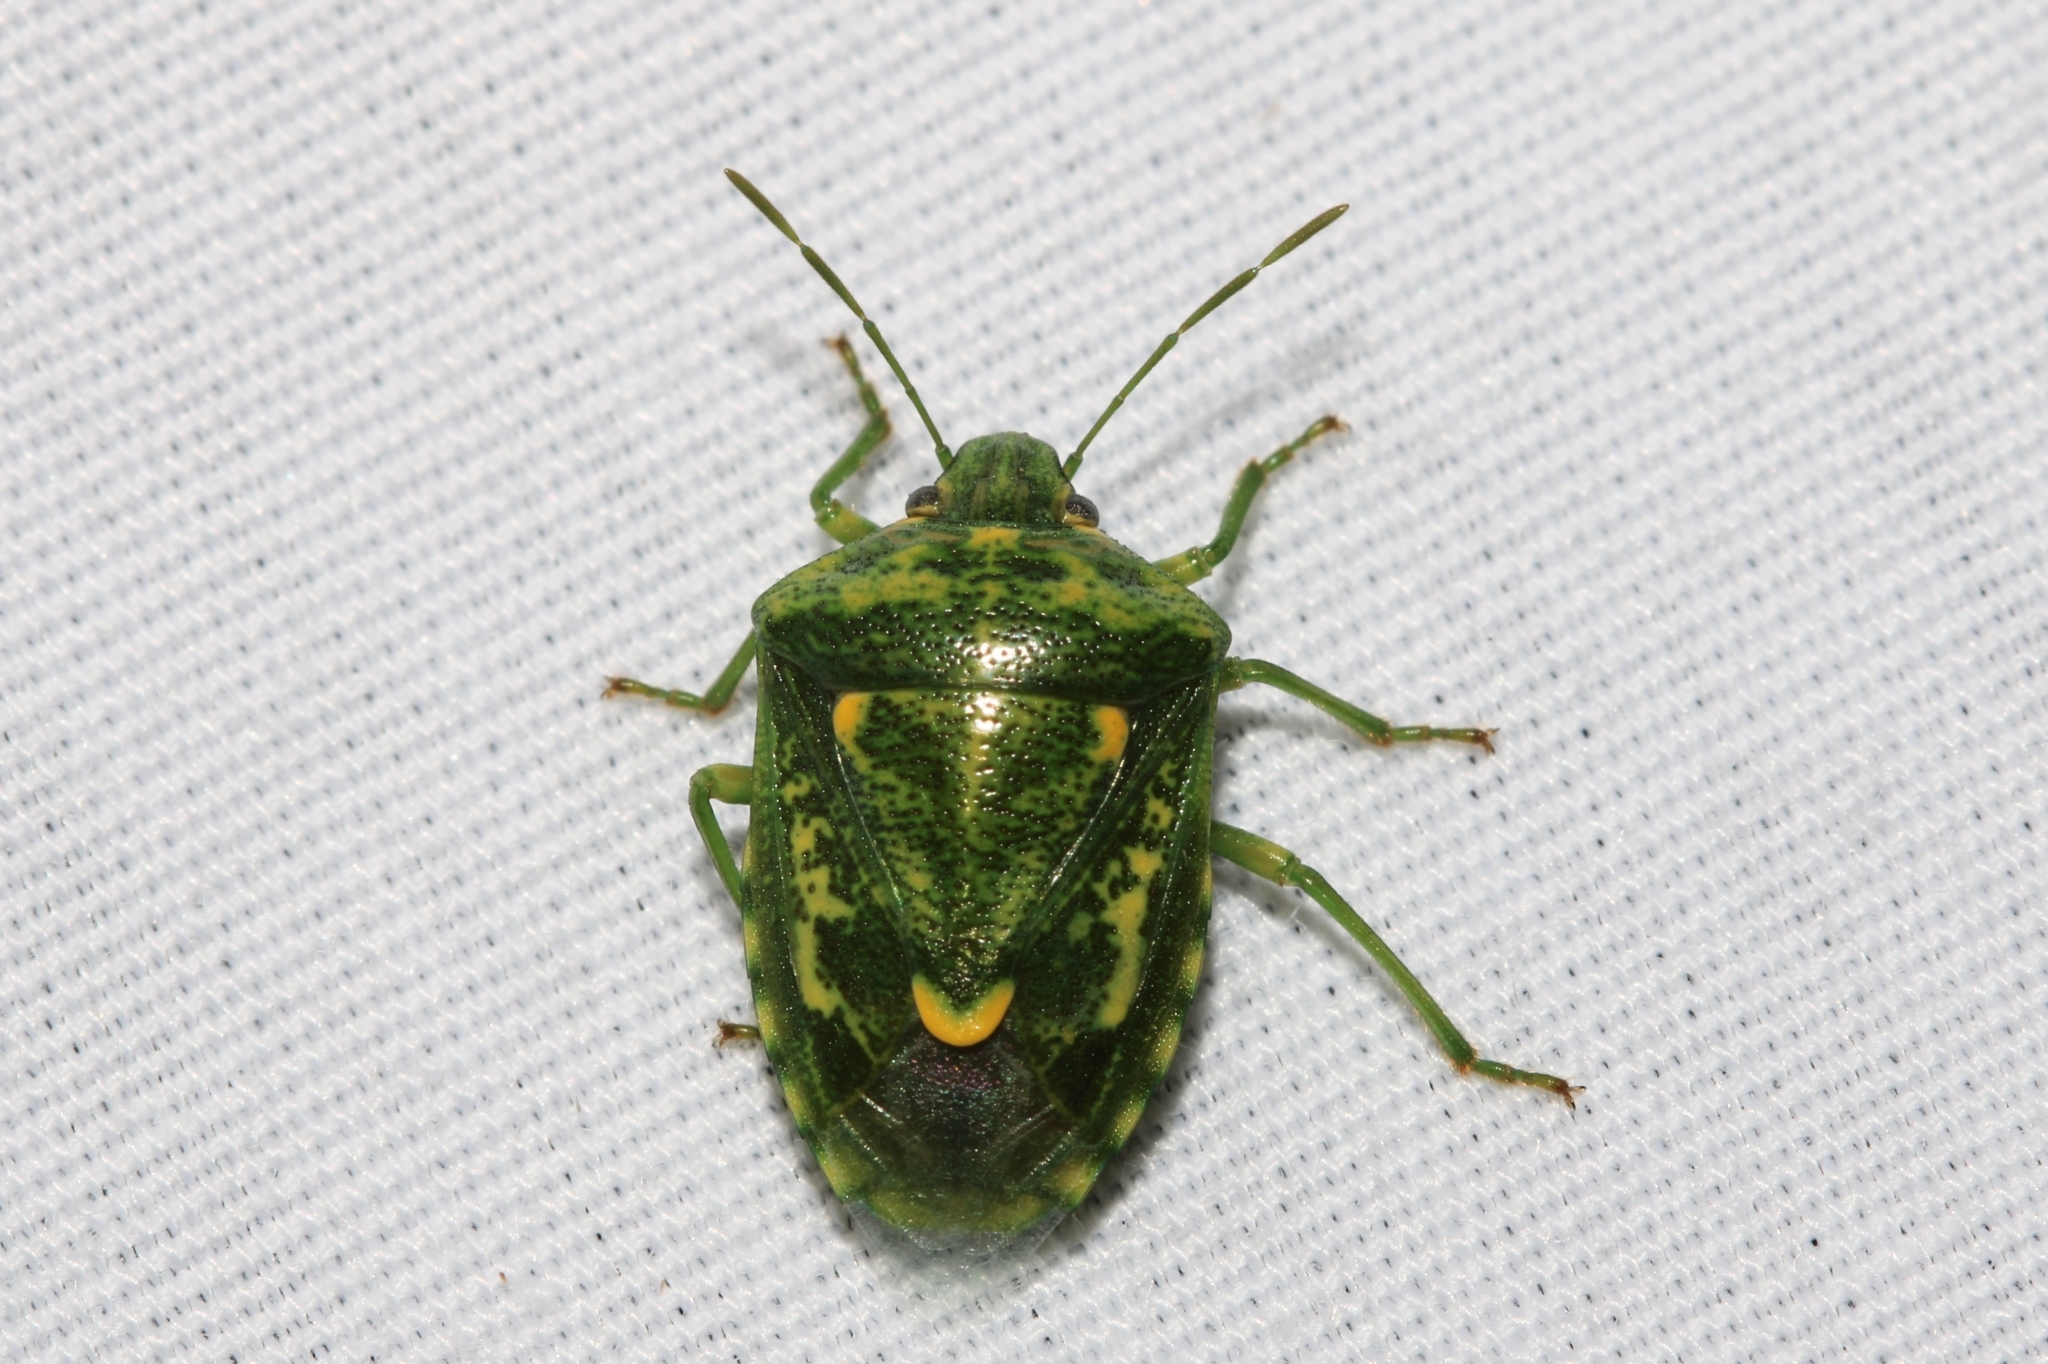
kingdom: Animalia
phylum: Arthropoda
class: Insecta
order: Hemiptera
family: Pentatomidae
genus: Banasa
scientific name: Banasa euchlora
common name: Cedar berry bug
